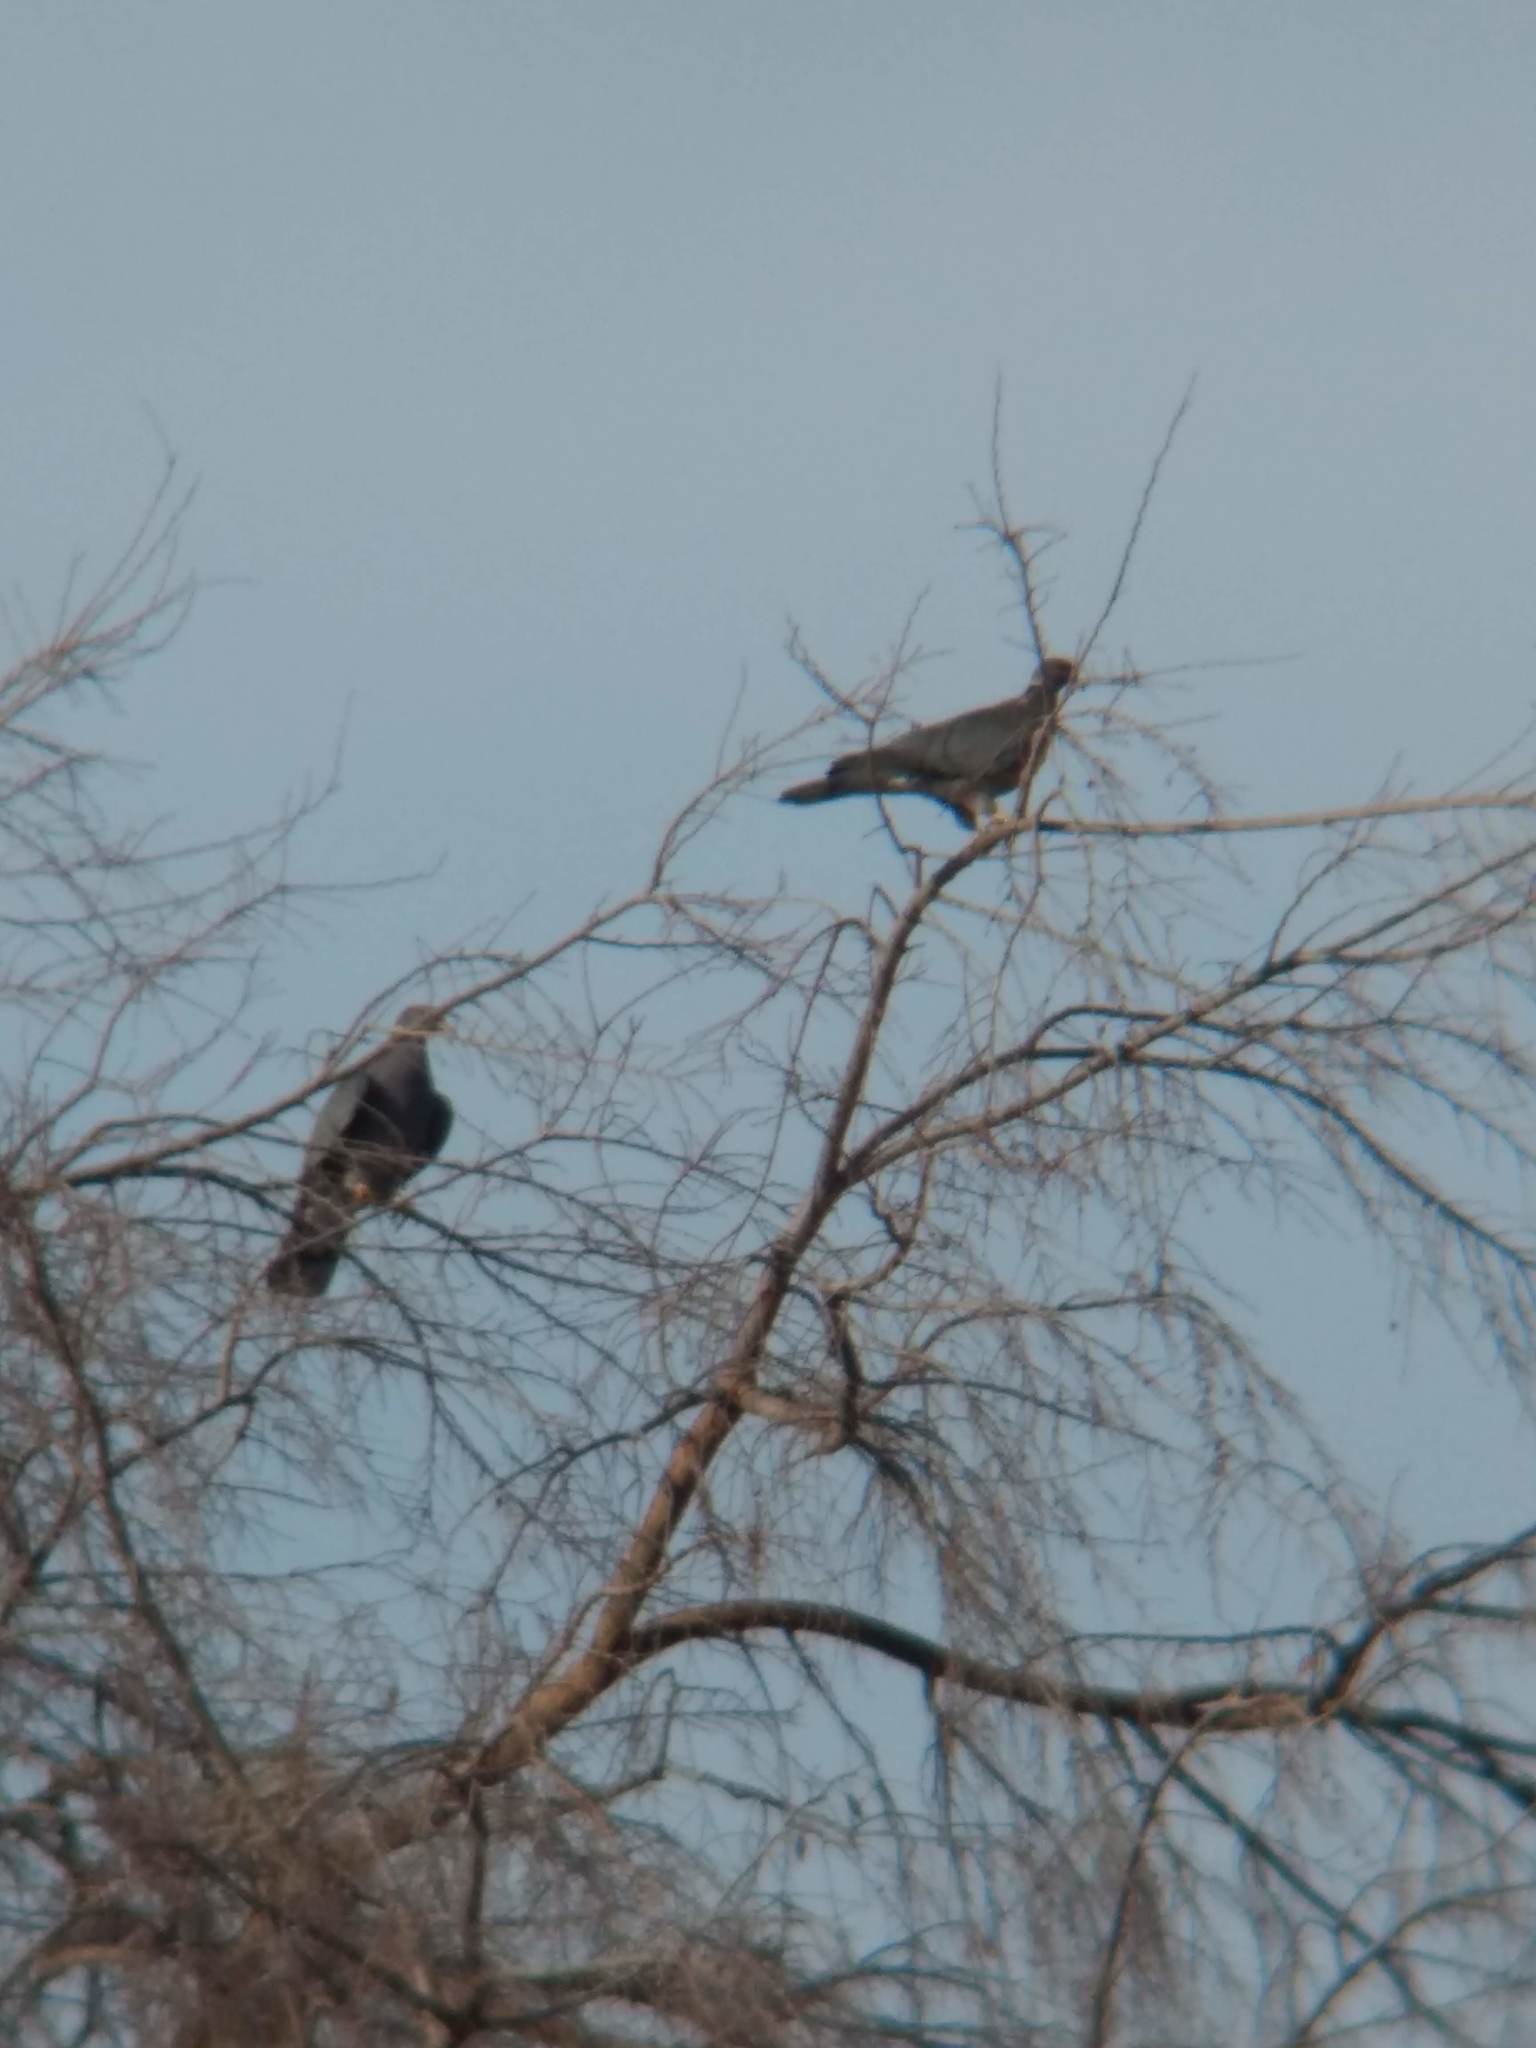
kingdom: Animalia
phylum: Chordata
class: Aves
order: Columbiformes
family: Columbidae
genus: Patagioenas
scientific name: Patagioenas fasciata
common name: Band-tailed pigeon
